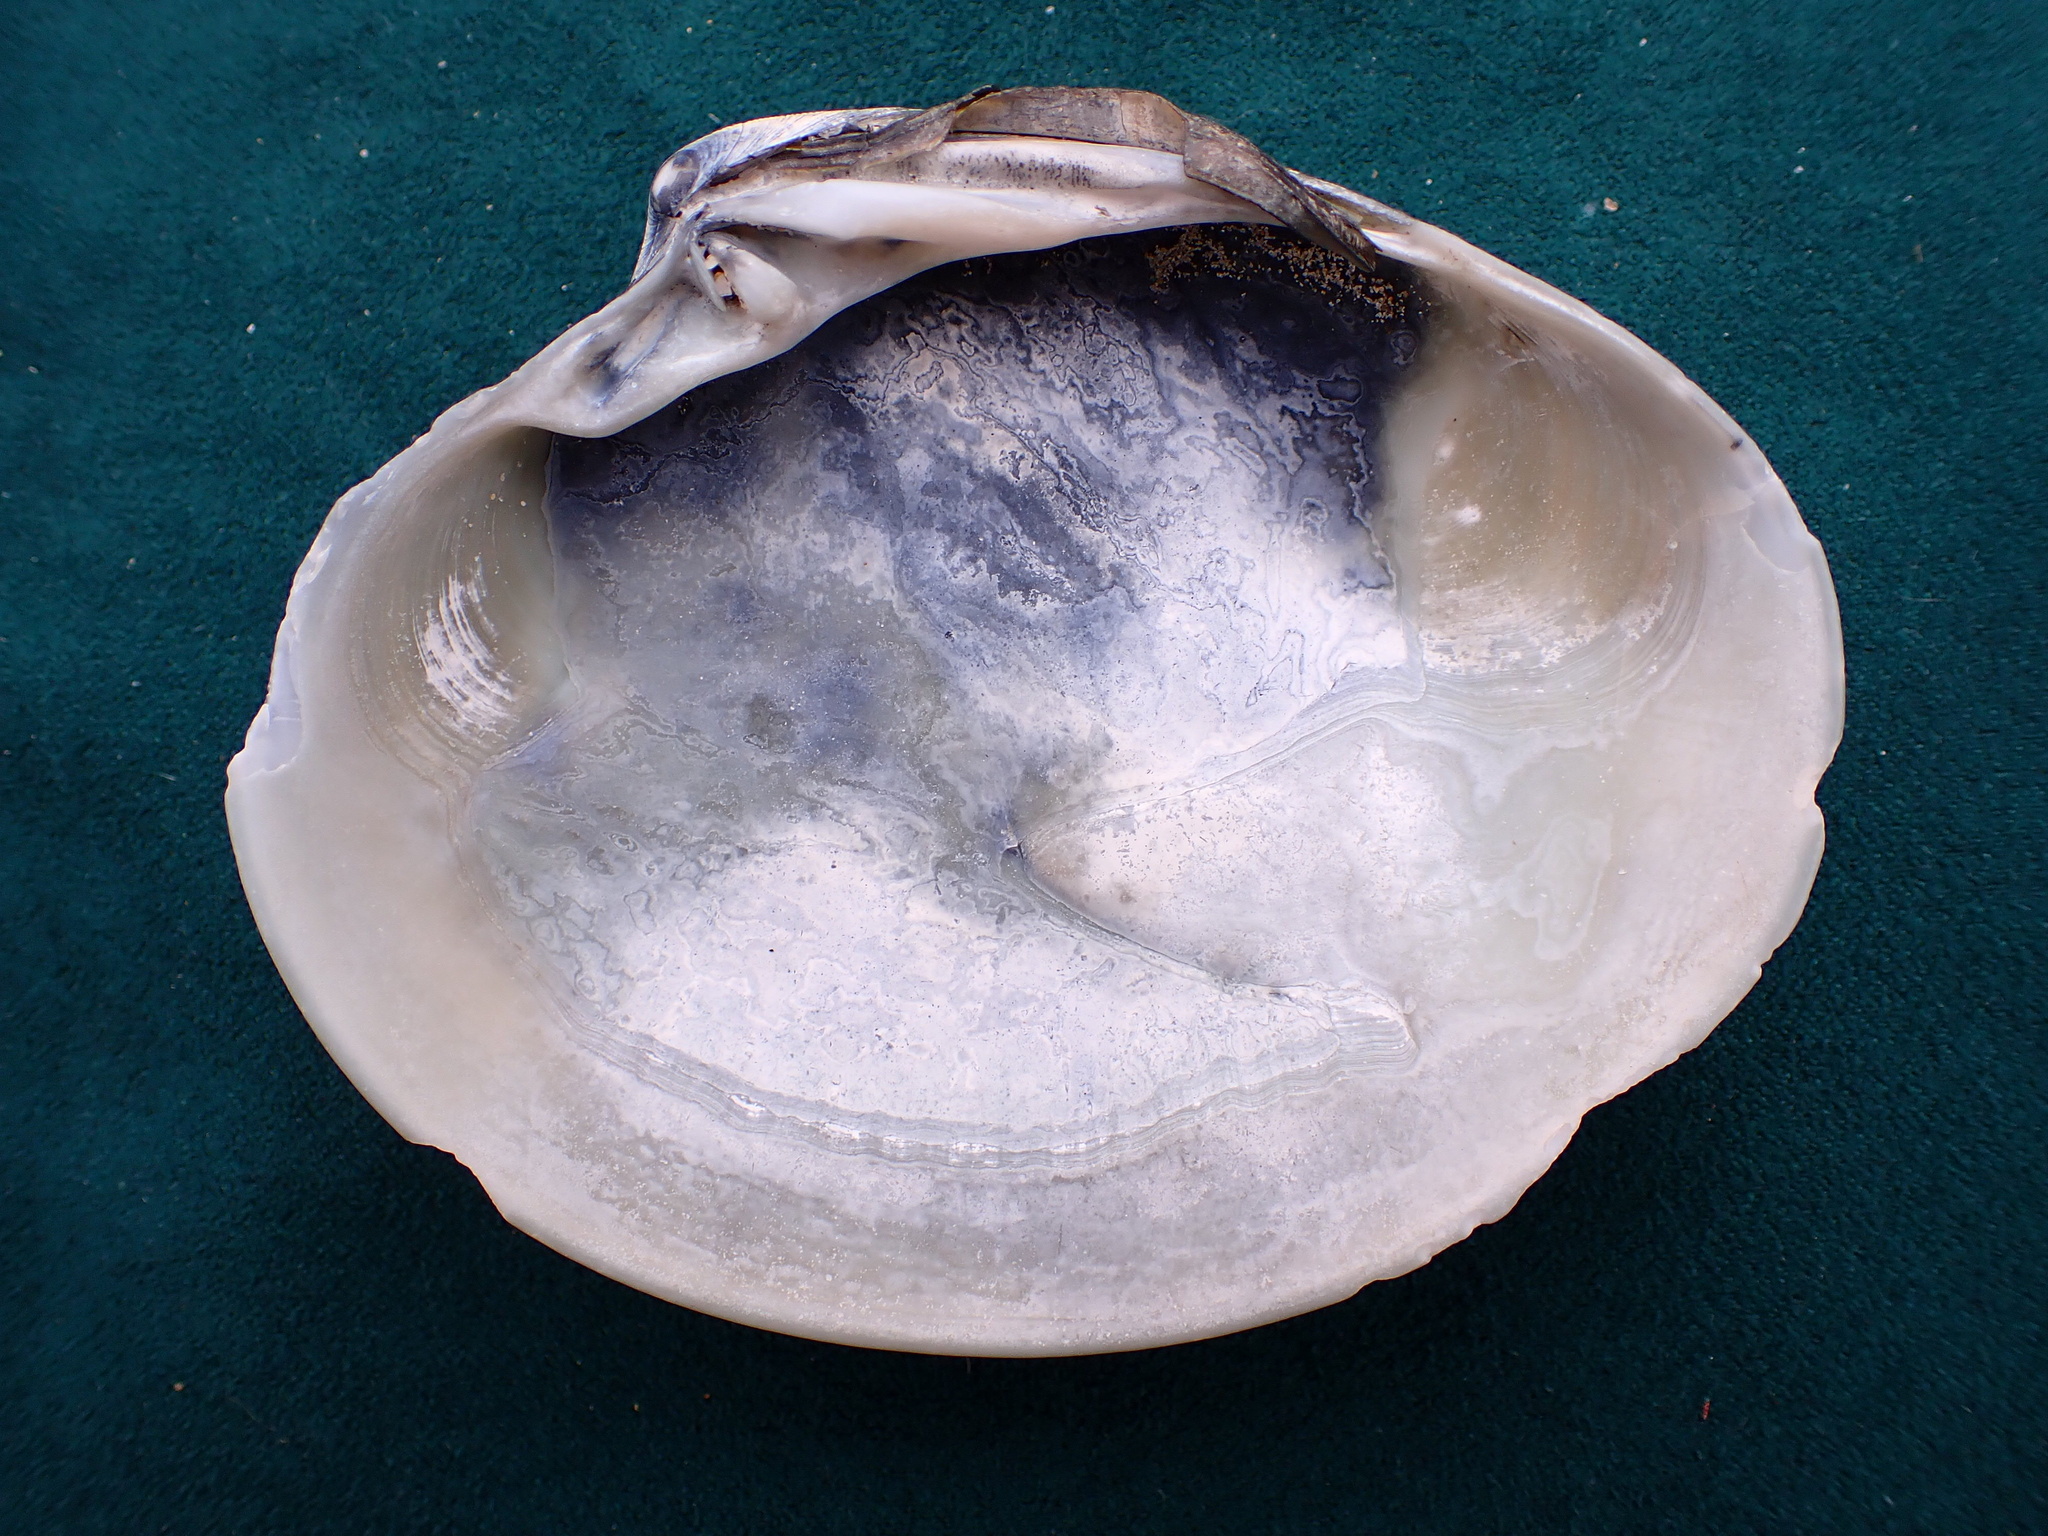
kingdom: Animalia
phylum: Mollusca
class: Bivalvia
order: Venerida
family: Veneridae
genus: Amiantis
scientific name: Amiantis callosa
